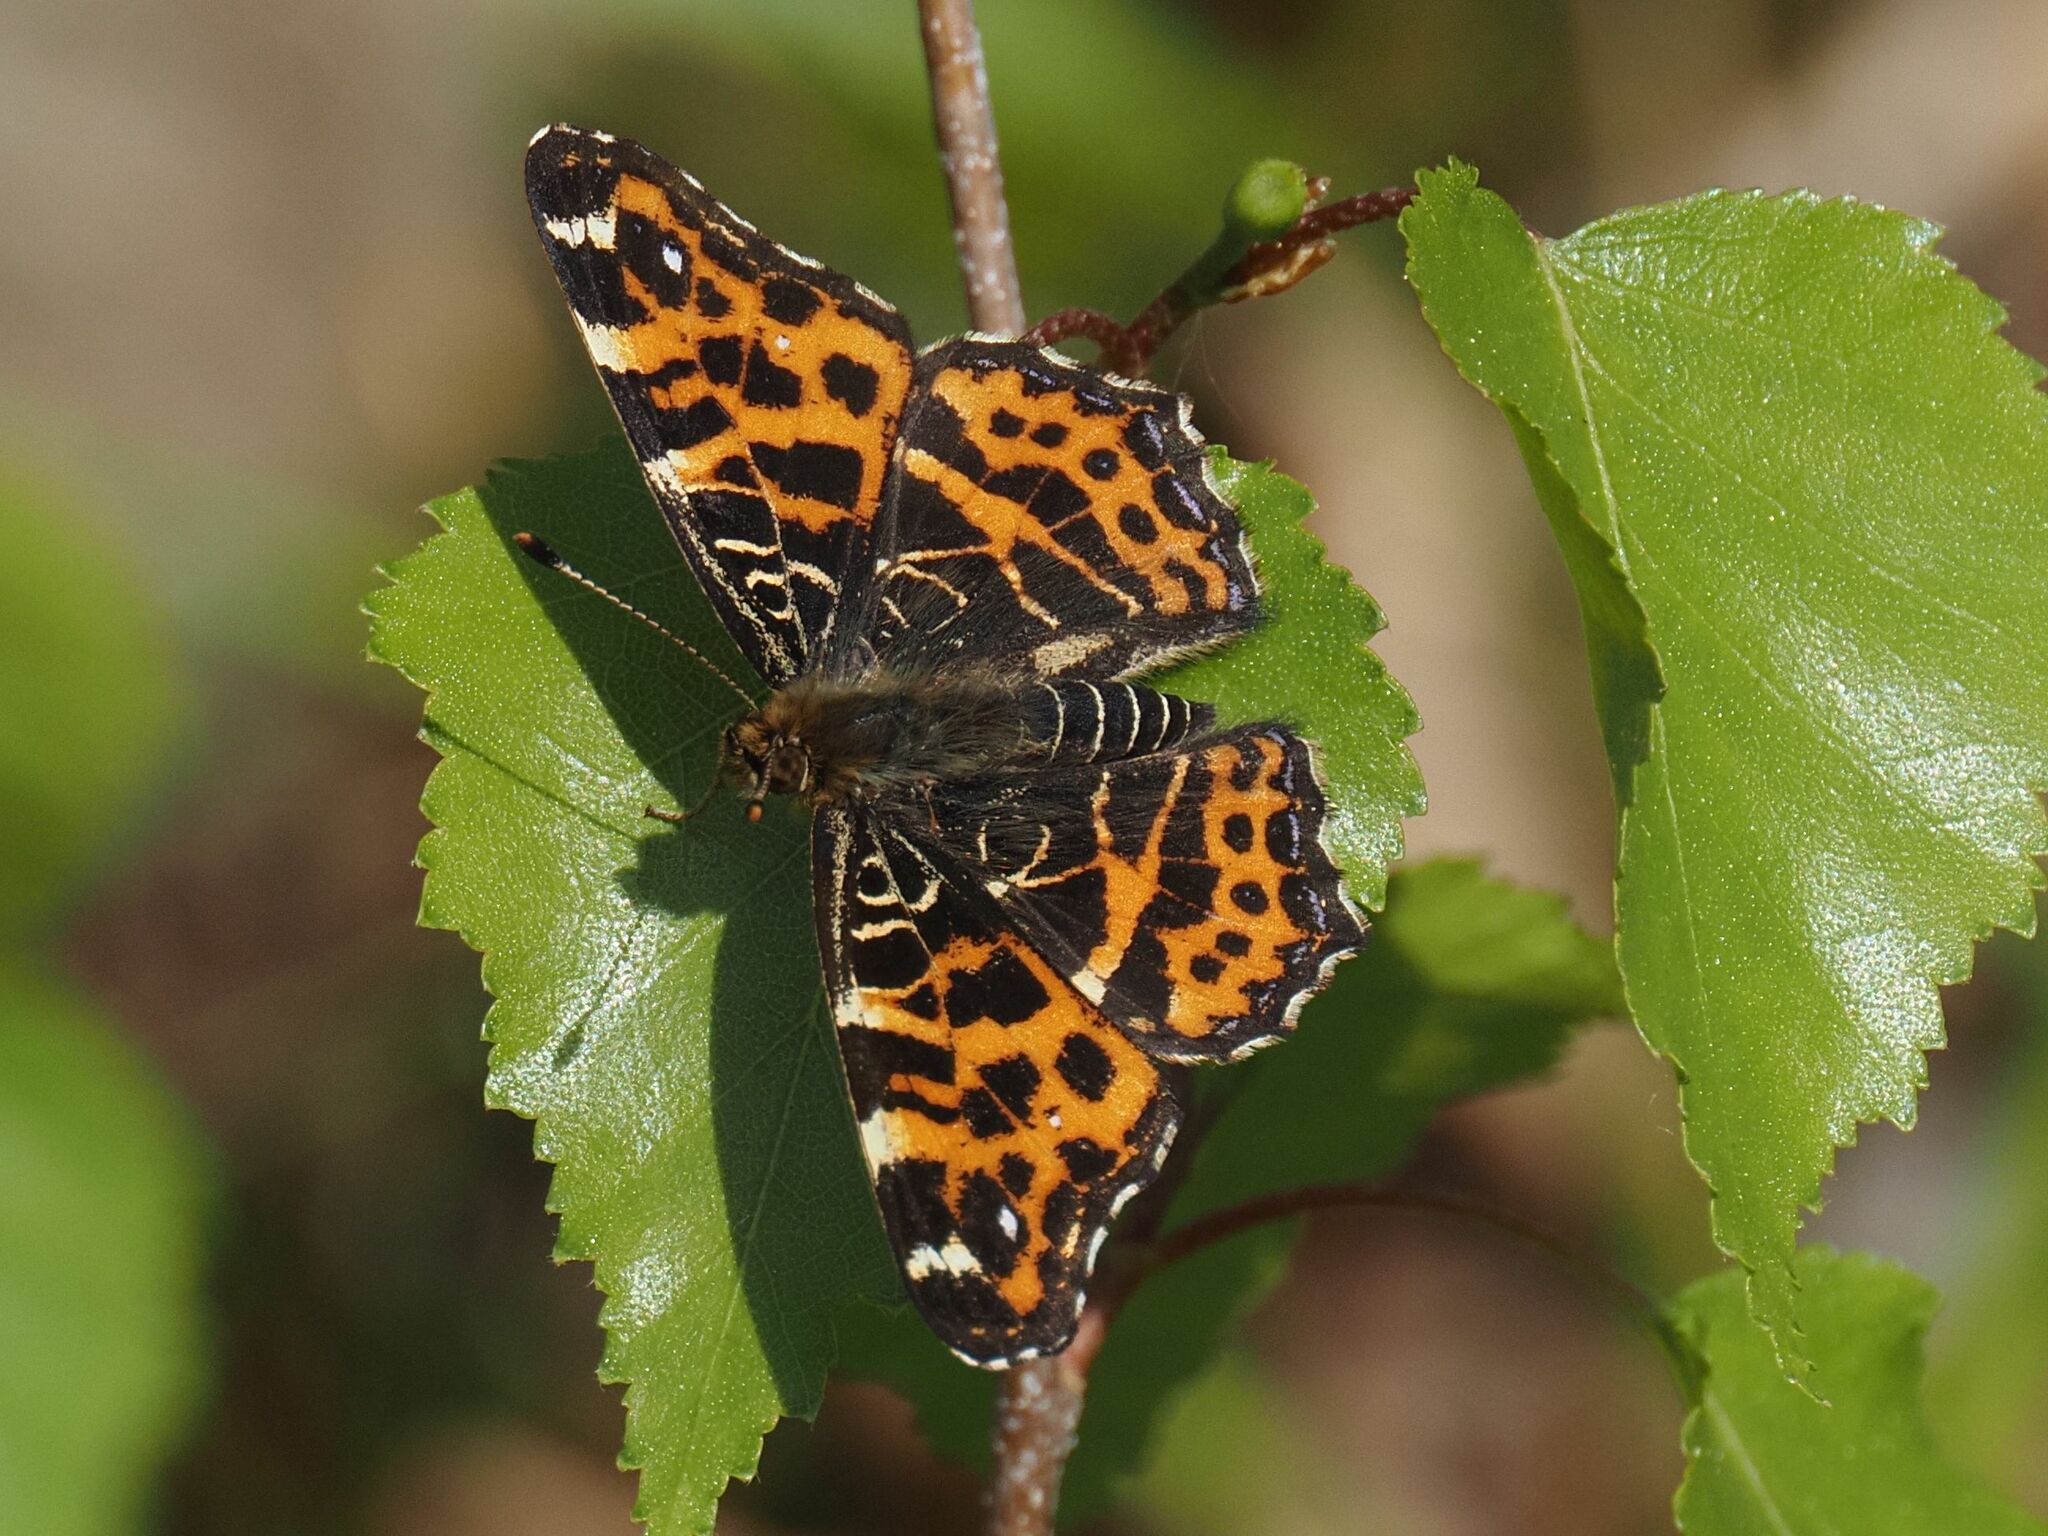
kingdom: Animalia
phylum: Arthropoda
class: Insecta
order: Lepidoptera
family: Nymphalidae
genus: Araschnia
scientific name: Araschnia levana
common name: Map butterfly
